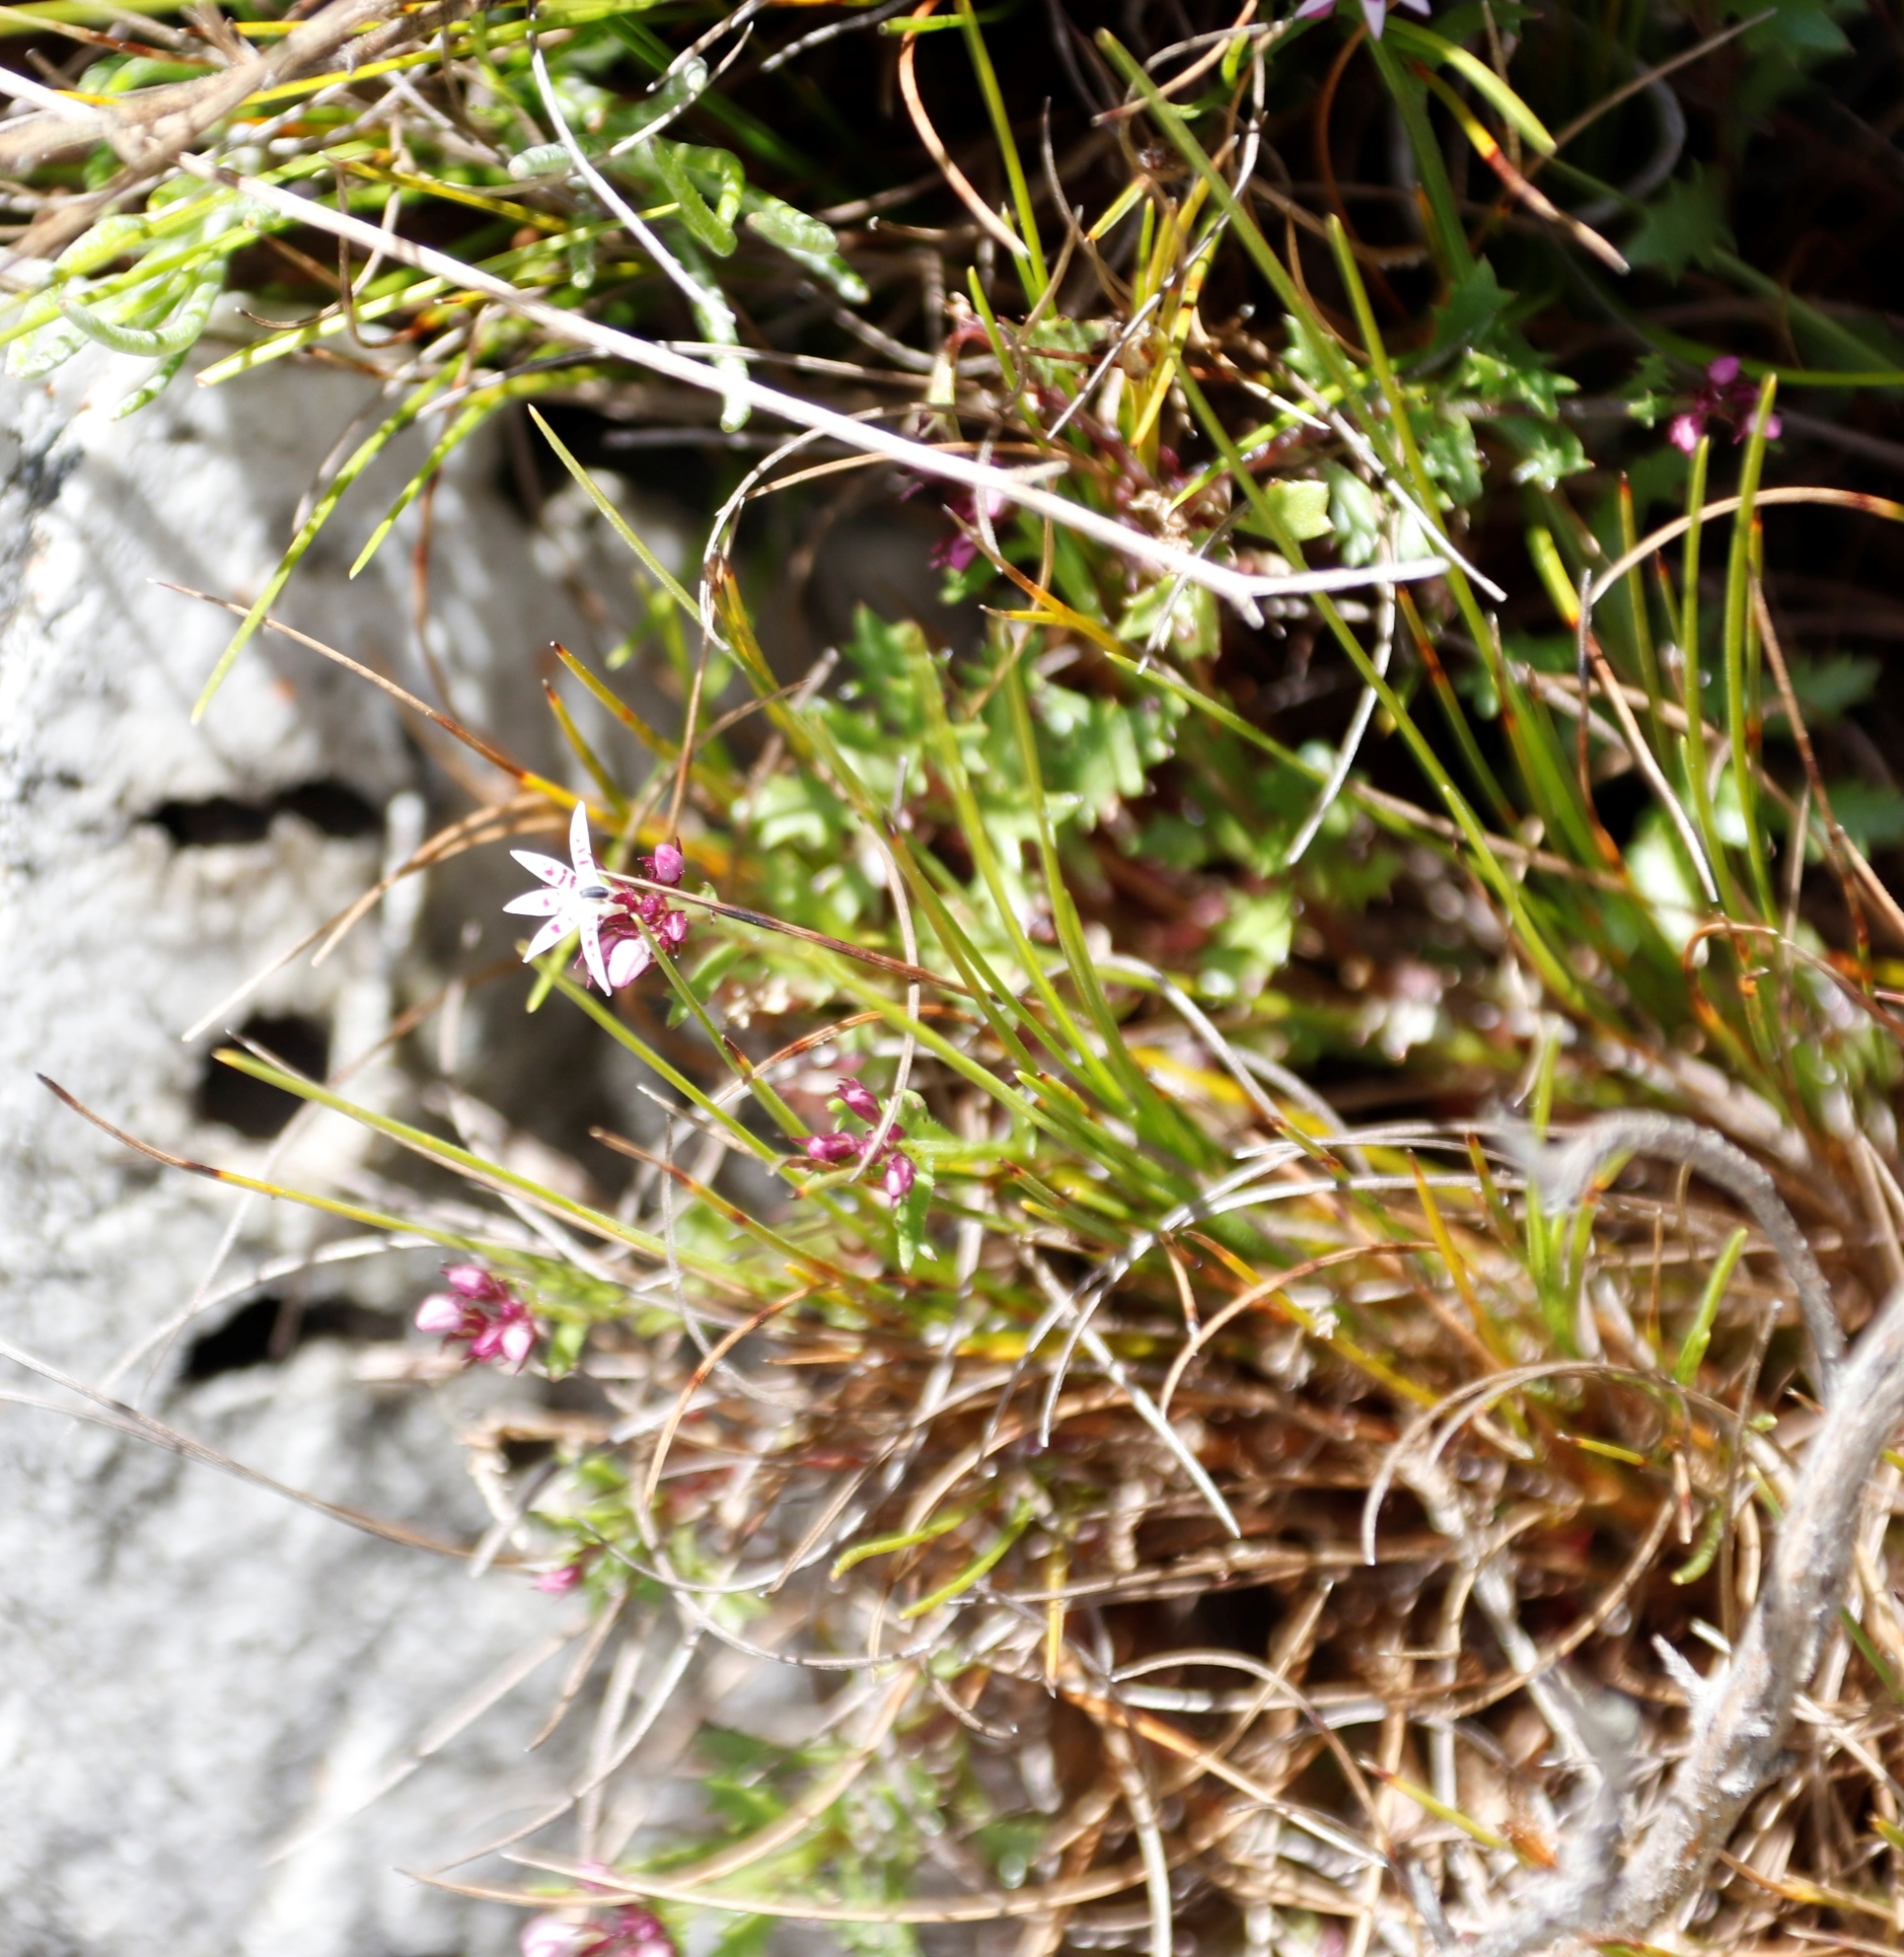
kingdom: Plantae
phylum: Tracheophyta
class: Magnoliopsida
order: Asterales
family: Campanulaceae
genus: Lobelia
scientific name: Lobelia jasionoides
